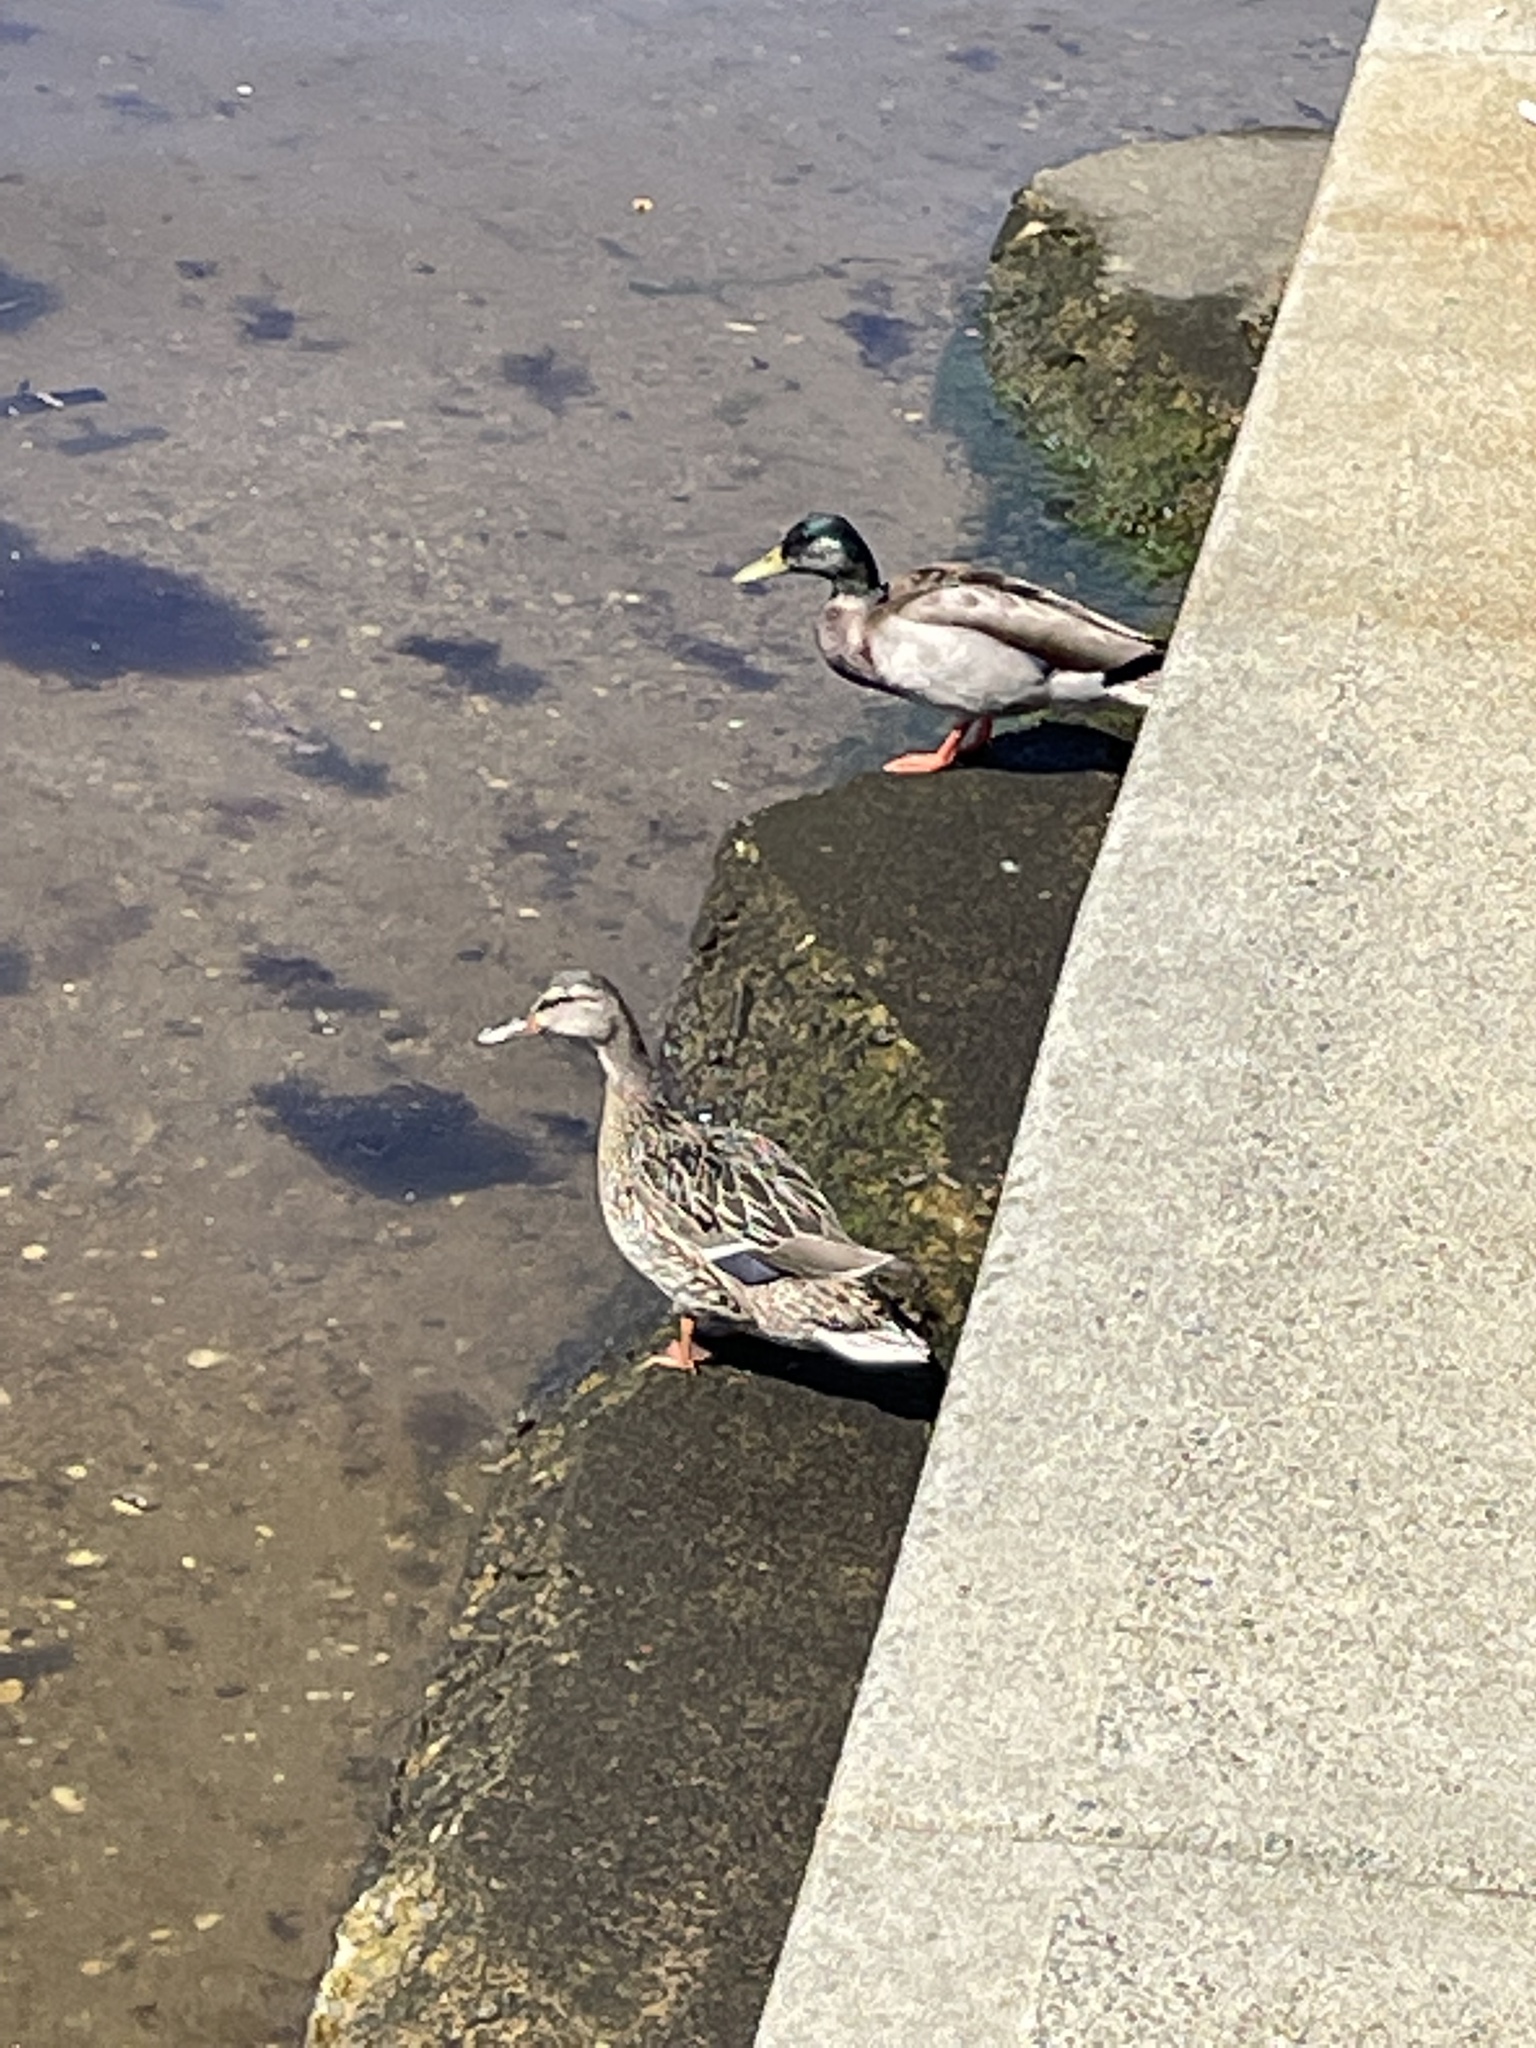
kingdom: Animalia
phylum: Chordata
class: Aves
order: Anseriformes
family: Anatidae
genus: Anas
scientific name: Anas platyrhynchos
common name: Mallard
